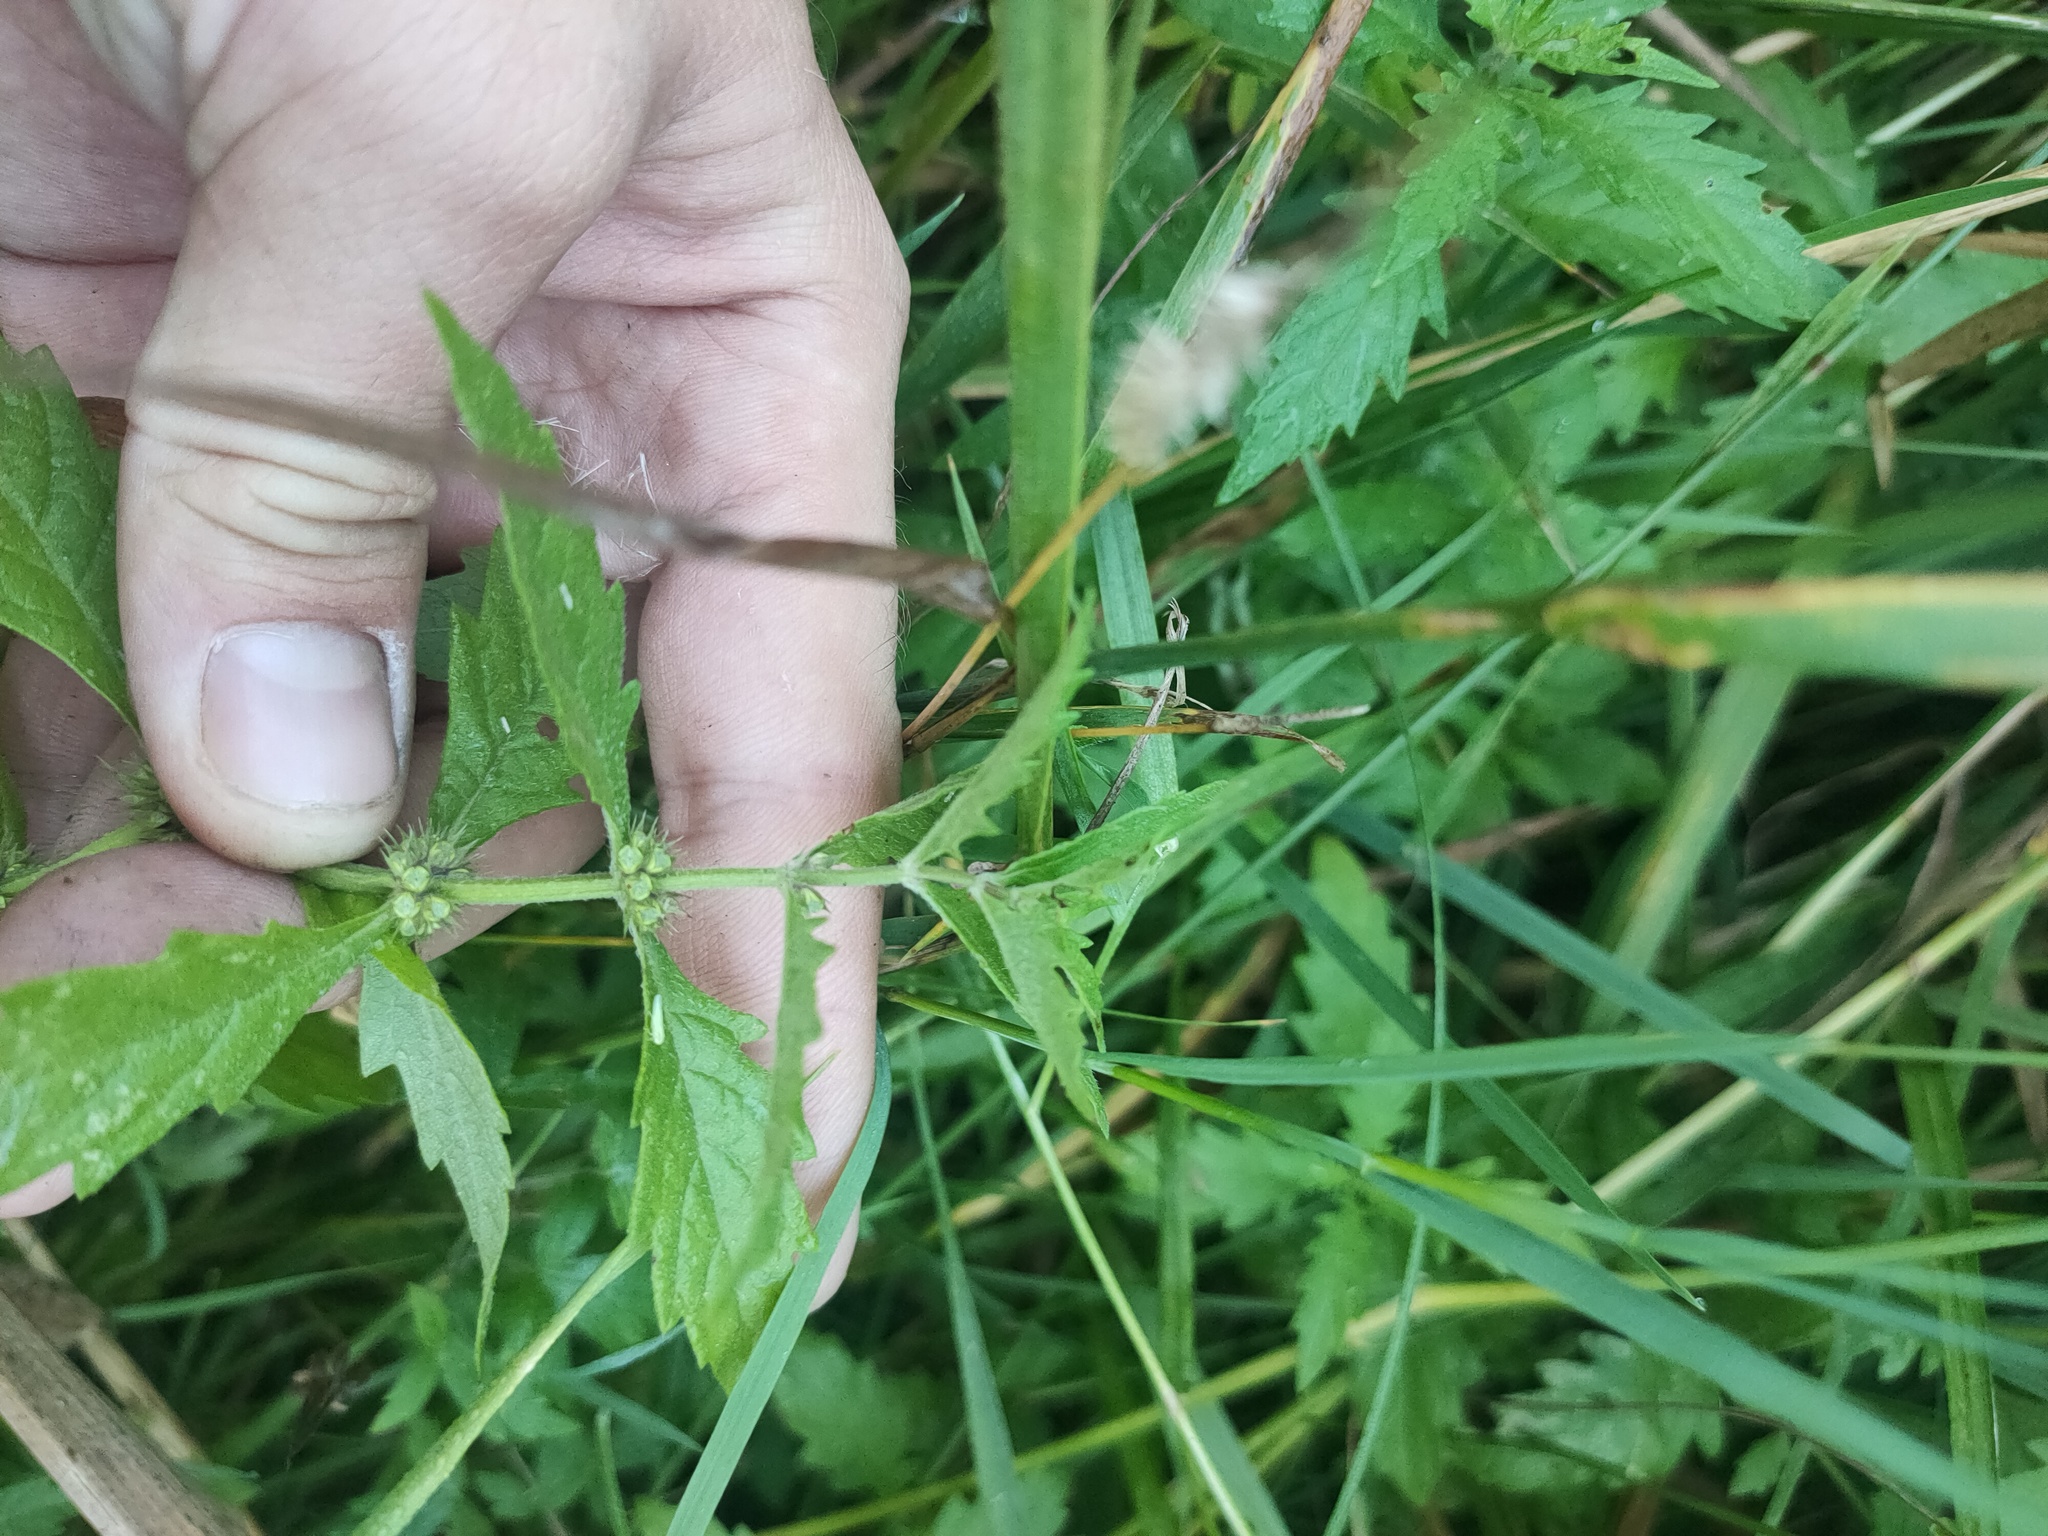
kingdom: Plantae
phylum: Tracheophyta
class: Magnoliopsida
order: Lamiales
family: Lamiaceae
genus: Lycopus
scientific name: Lycopus europaeus
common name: European bugleweed
